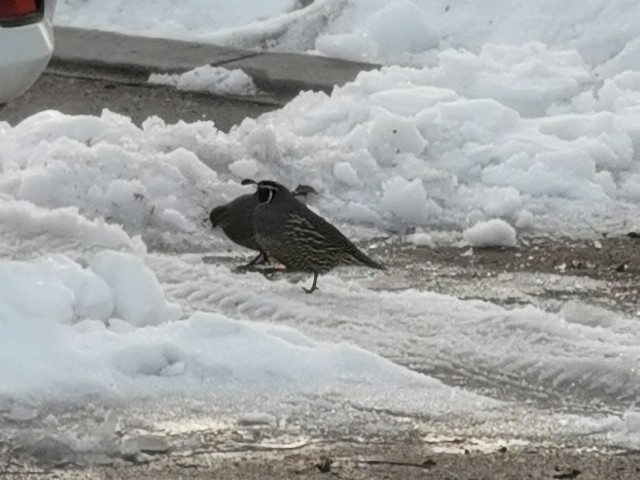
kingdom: Animalia
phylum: Chordata
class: Aves
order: Galliformes
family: Odontophoridae
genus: Callipepla
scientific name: Callipepla californica
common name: California quail
